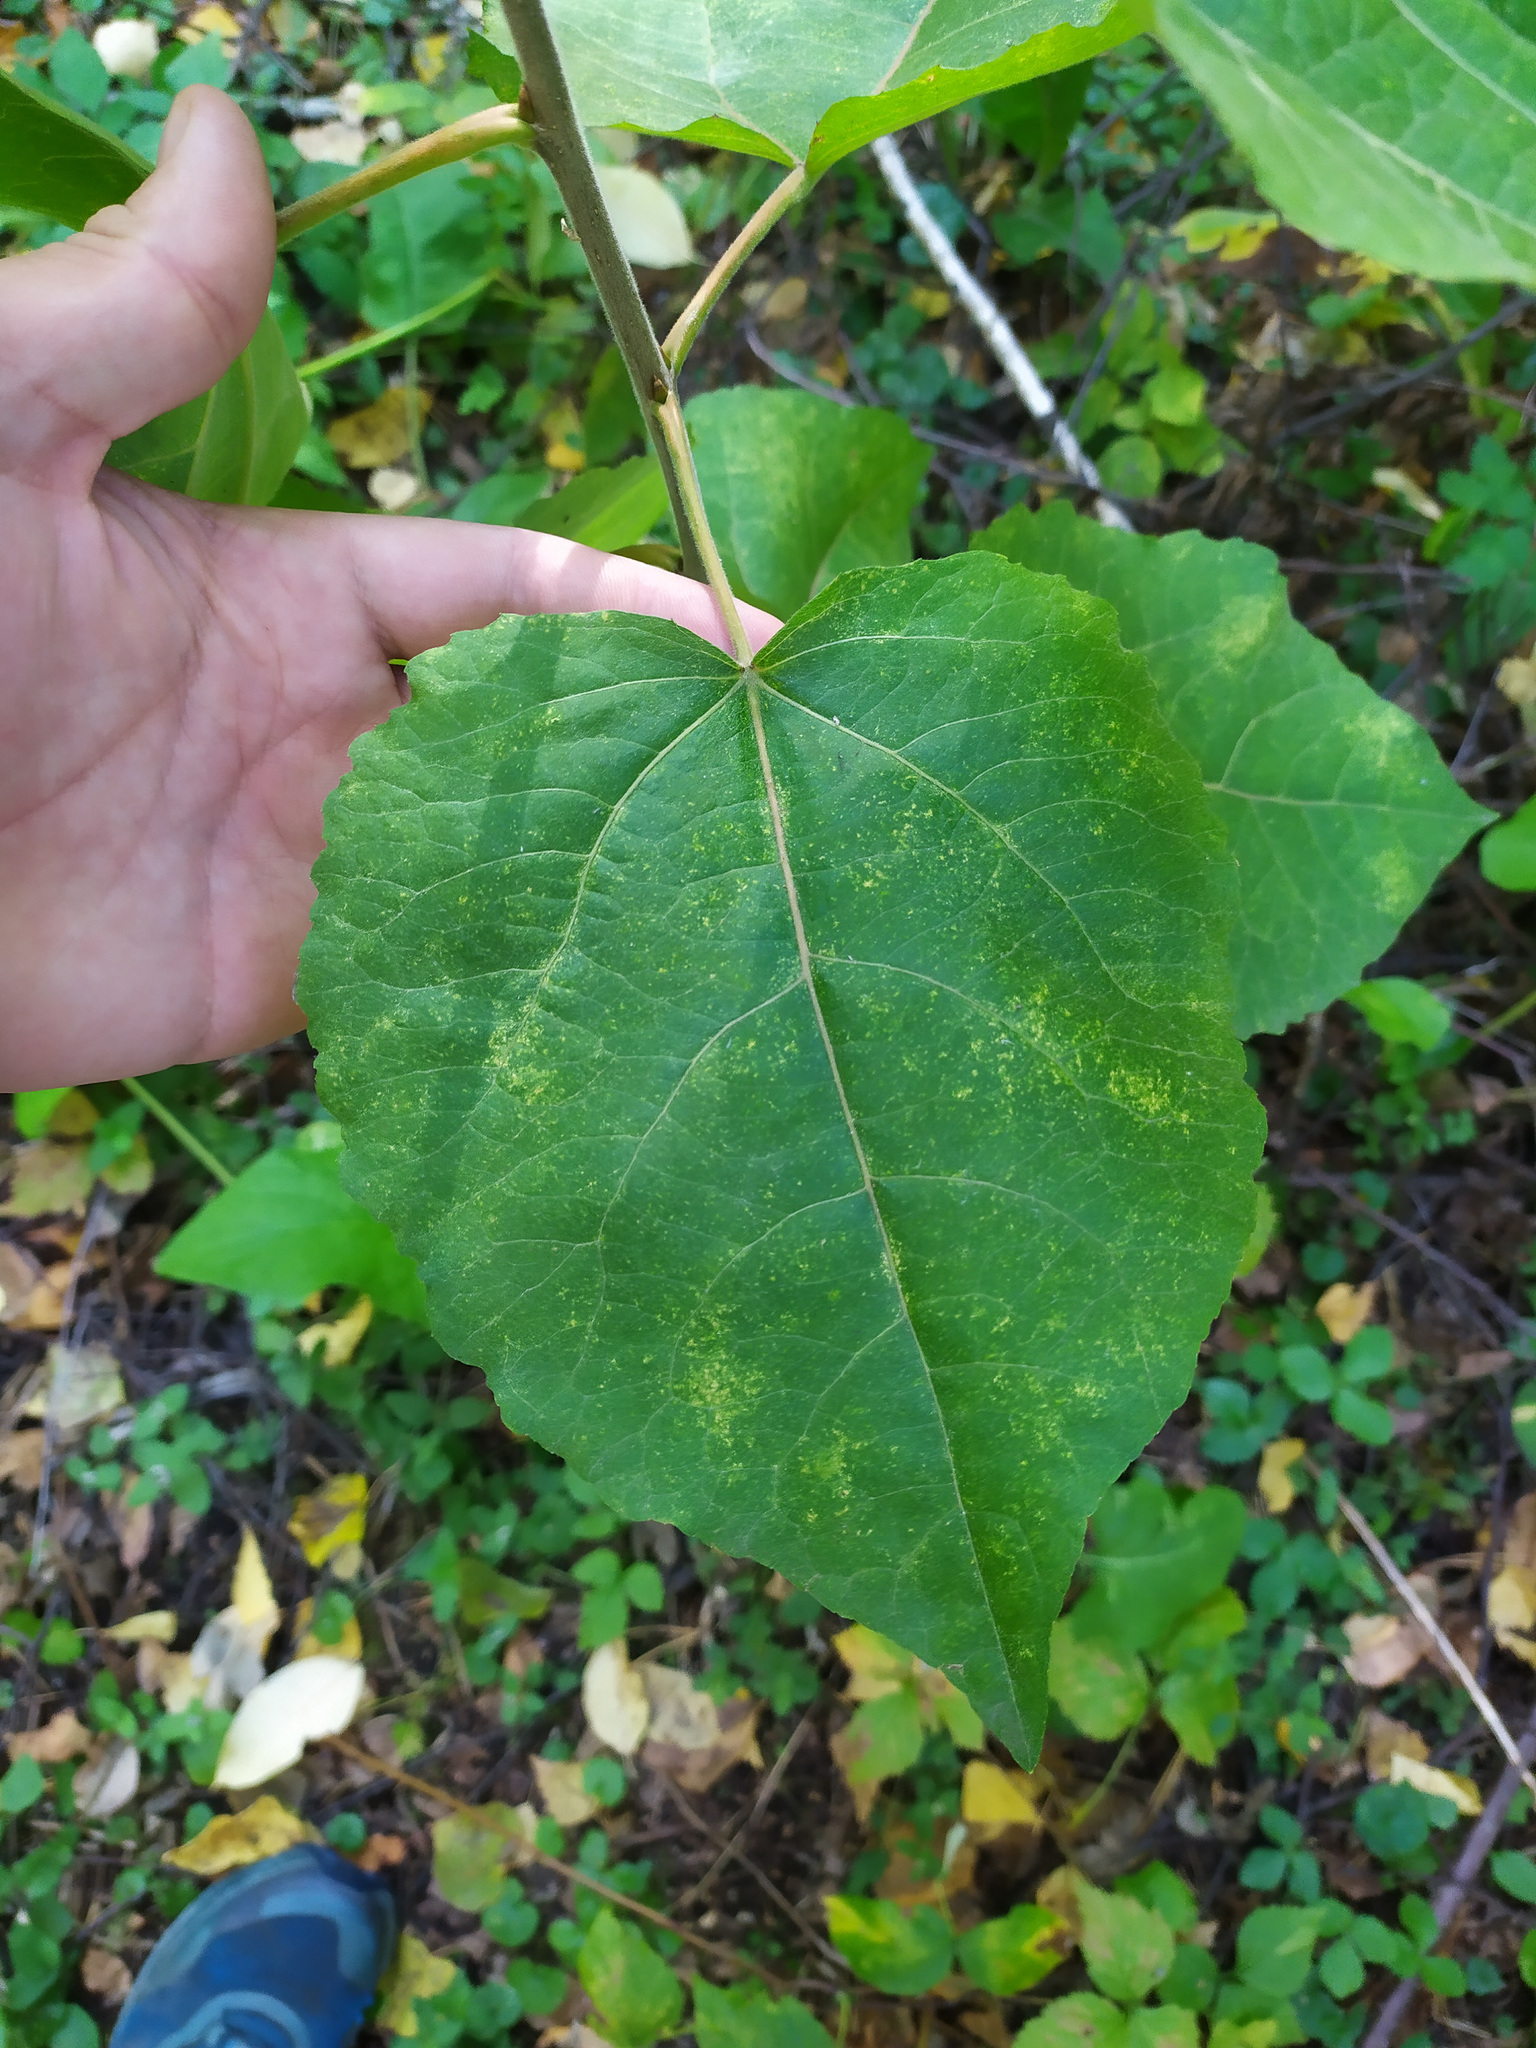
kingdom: Plantae
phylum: Tracheophyta
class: Magnoliopsida
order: Malpighiales
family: Salicaceae
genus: Populus
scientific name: Populus tremula
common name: European aspen
